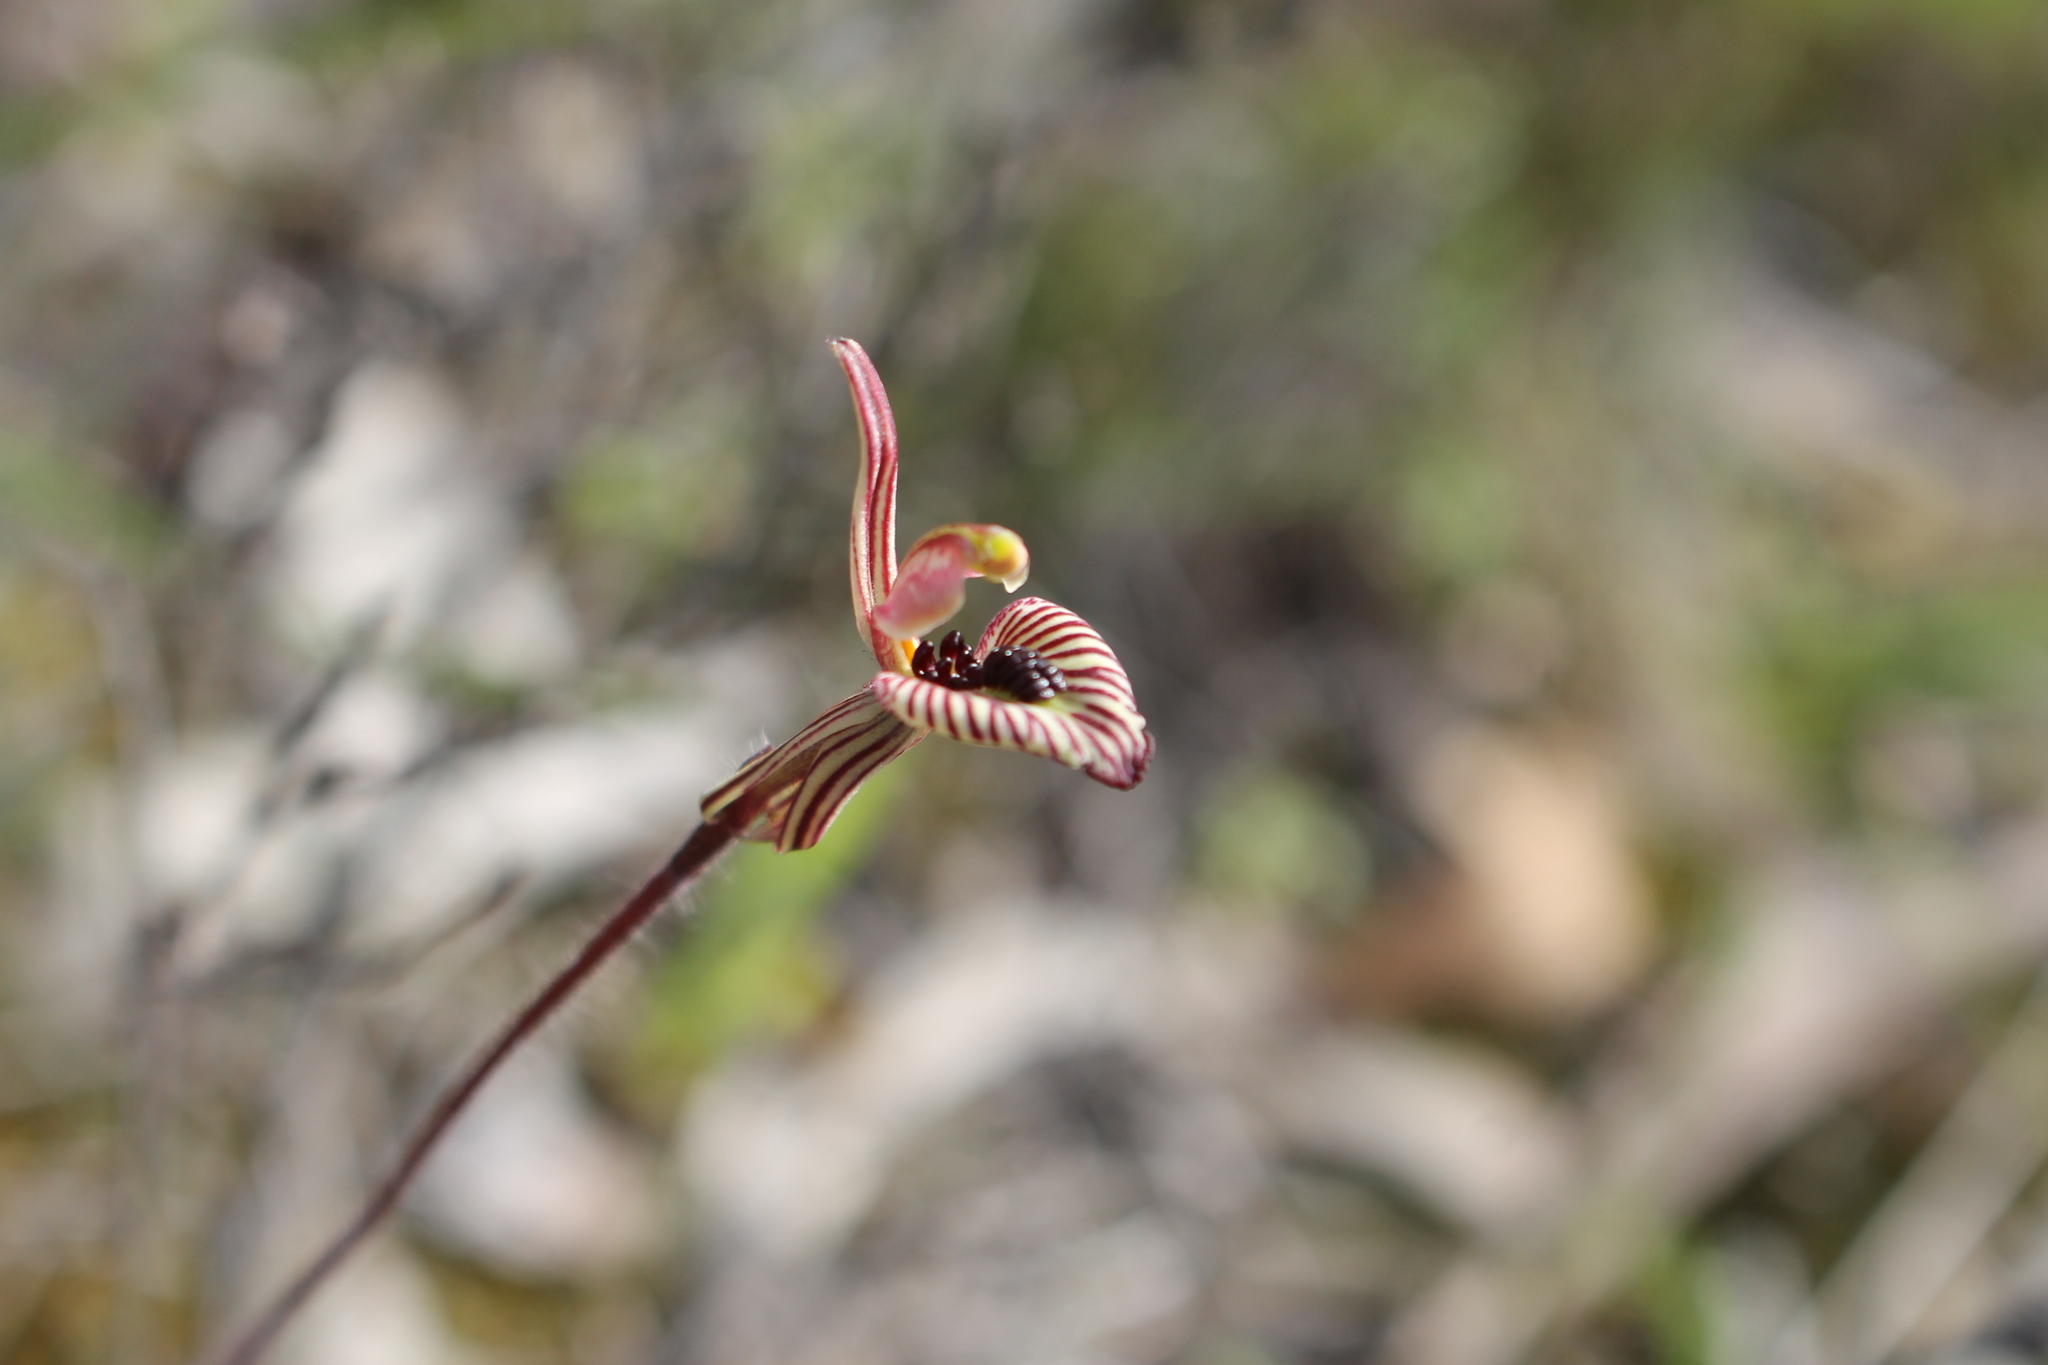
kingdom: Plantae
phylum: Tracheophyta
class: Liliopsida
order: Asparagales
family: Orchidaceae
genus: Caladenia
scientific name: Caladenia cairnsiana
